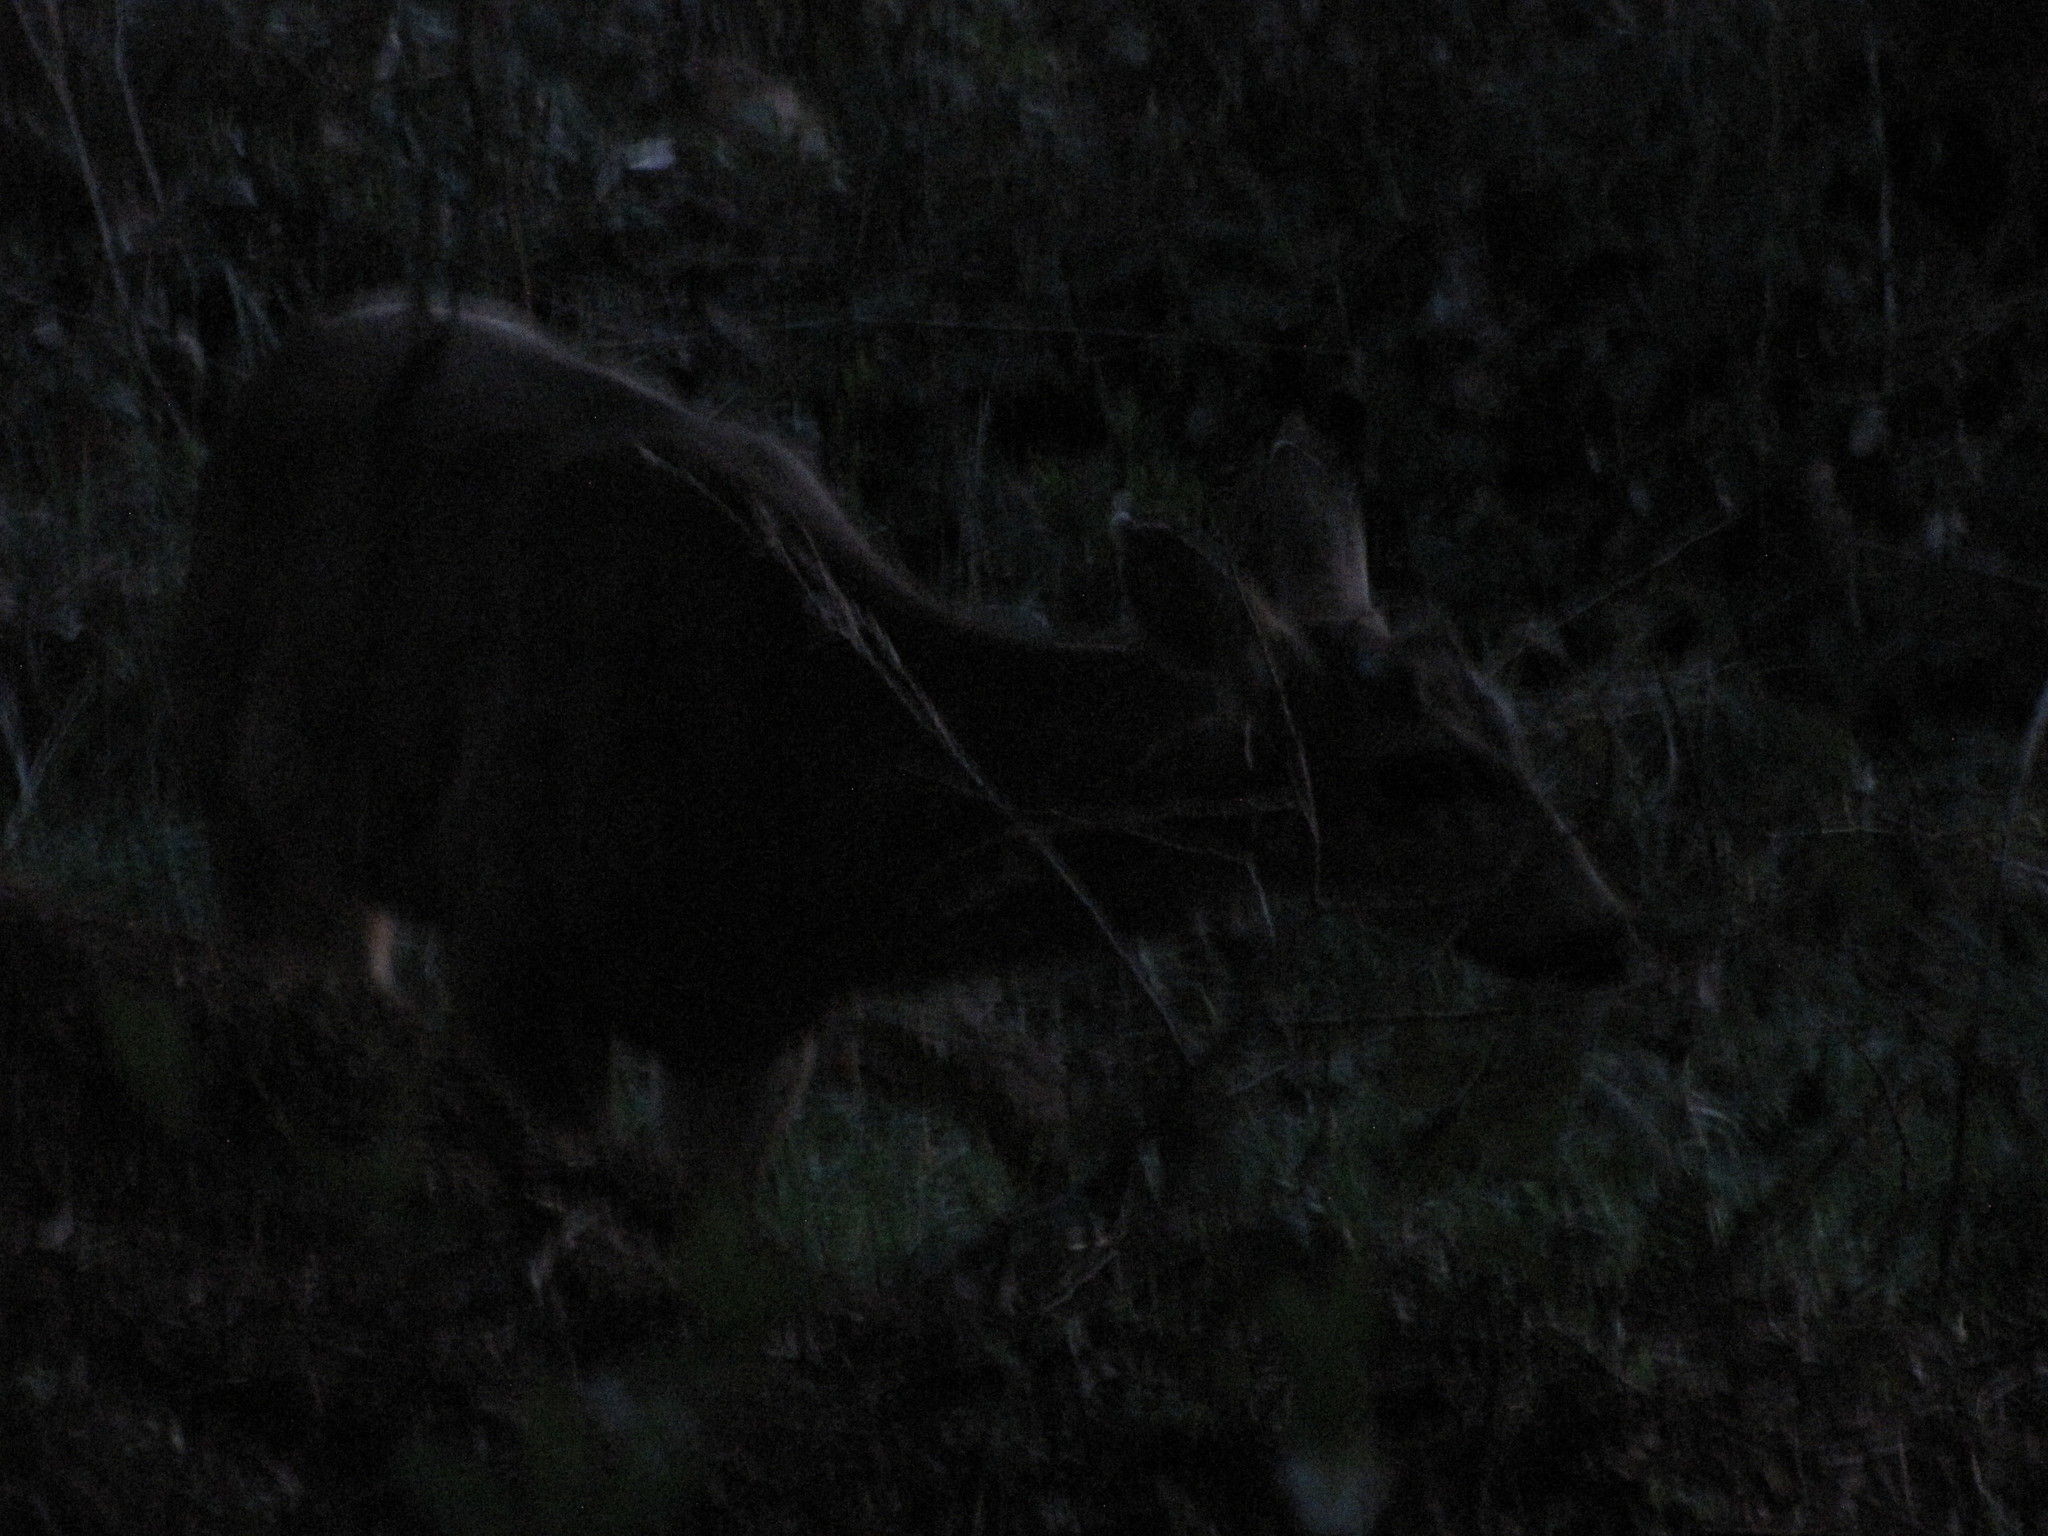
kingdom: Animalia
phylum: Chordata
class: Mammalia
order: Artiodactyla
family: Cervidae
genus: Odocoileus
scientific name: Odocoileus hemionus
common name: Mule deer
